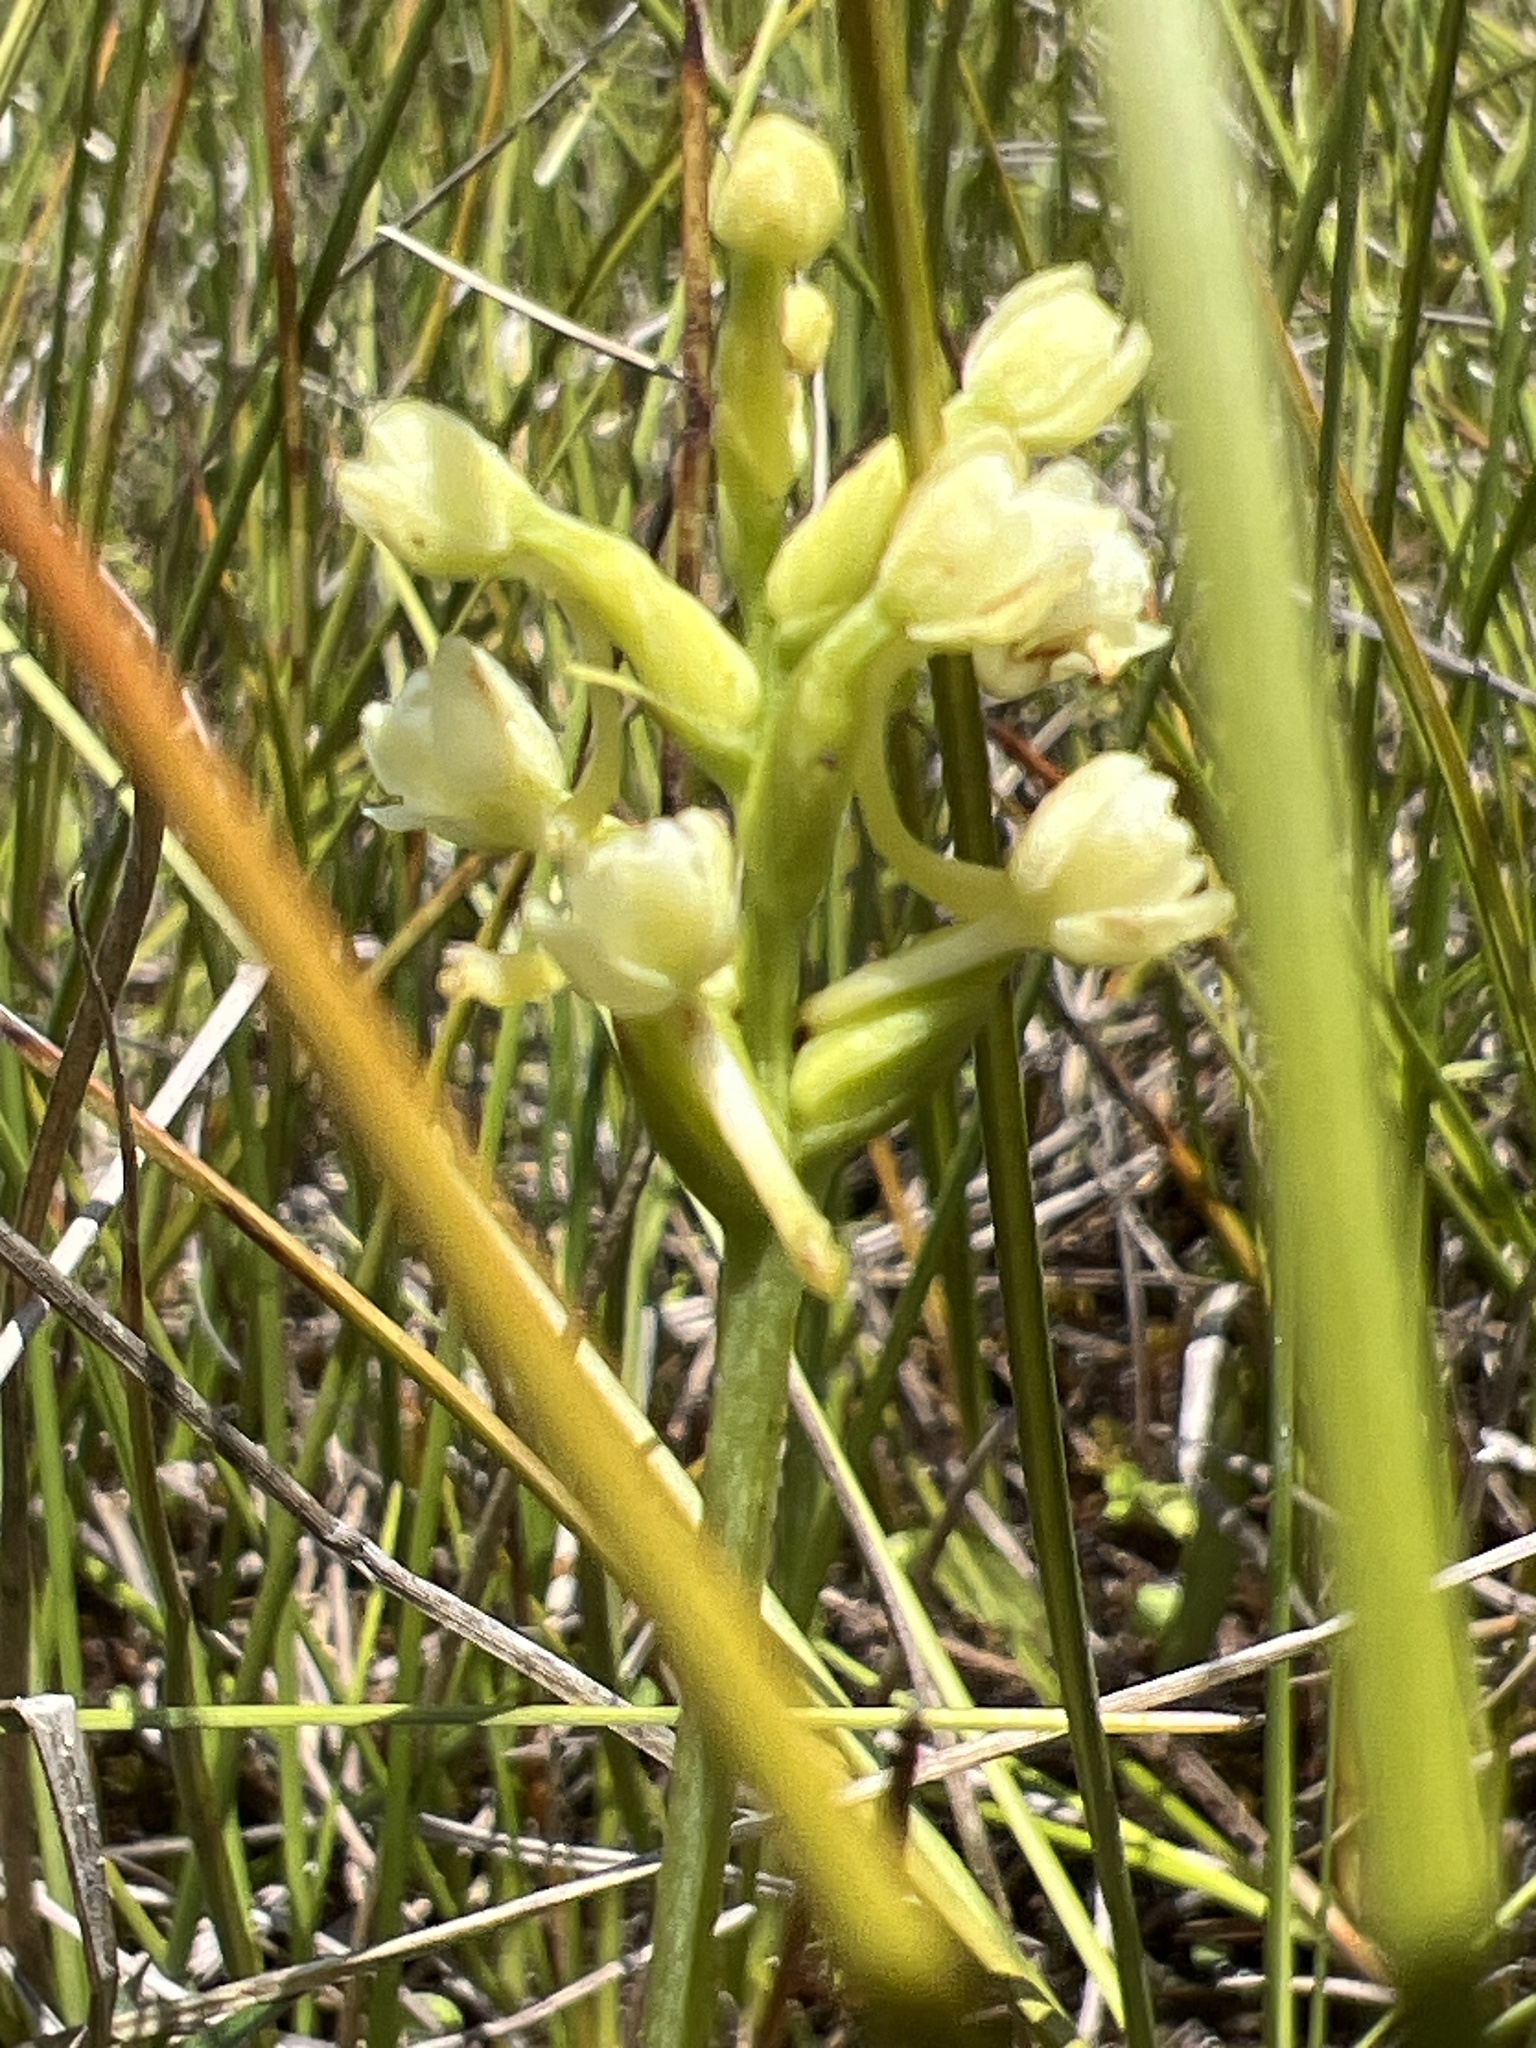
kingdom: Plantae
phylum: Tracheophyta
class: Liliopsida
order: Asparagales
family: Orchidaceae
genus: Platanthera
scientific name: Platanthera clavellata
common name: Club-spur orchid
